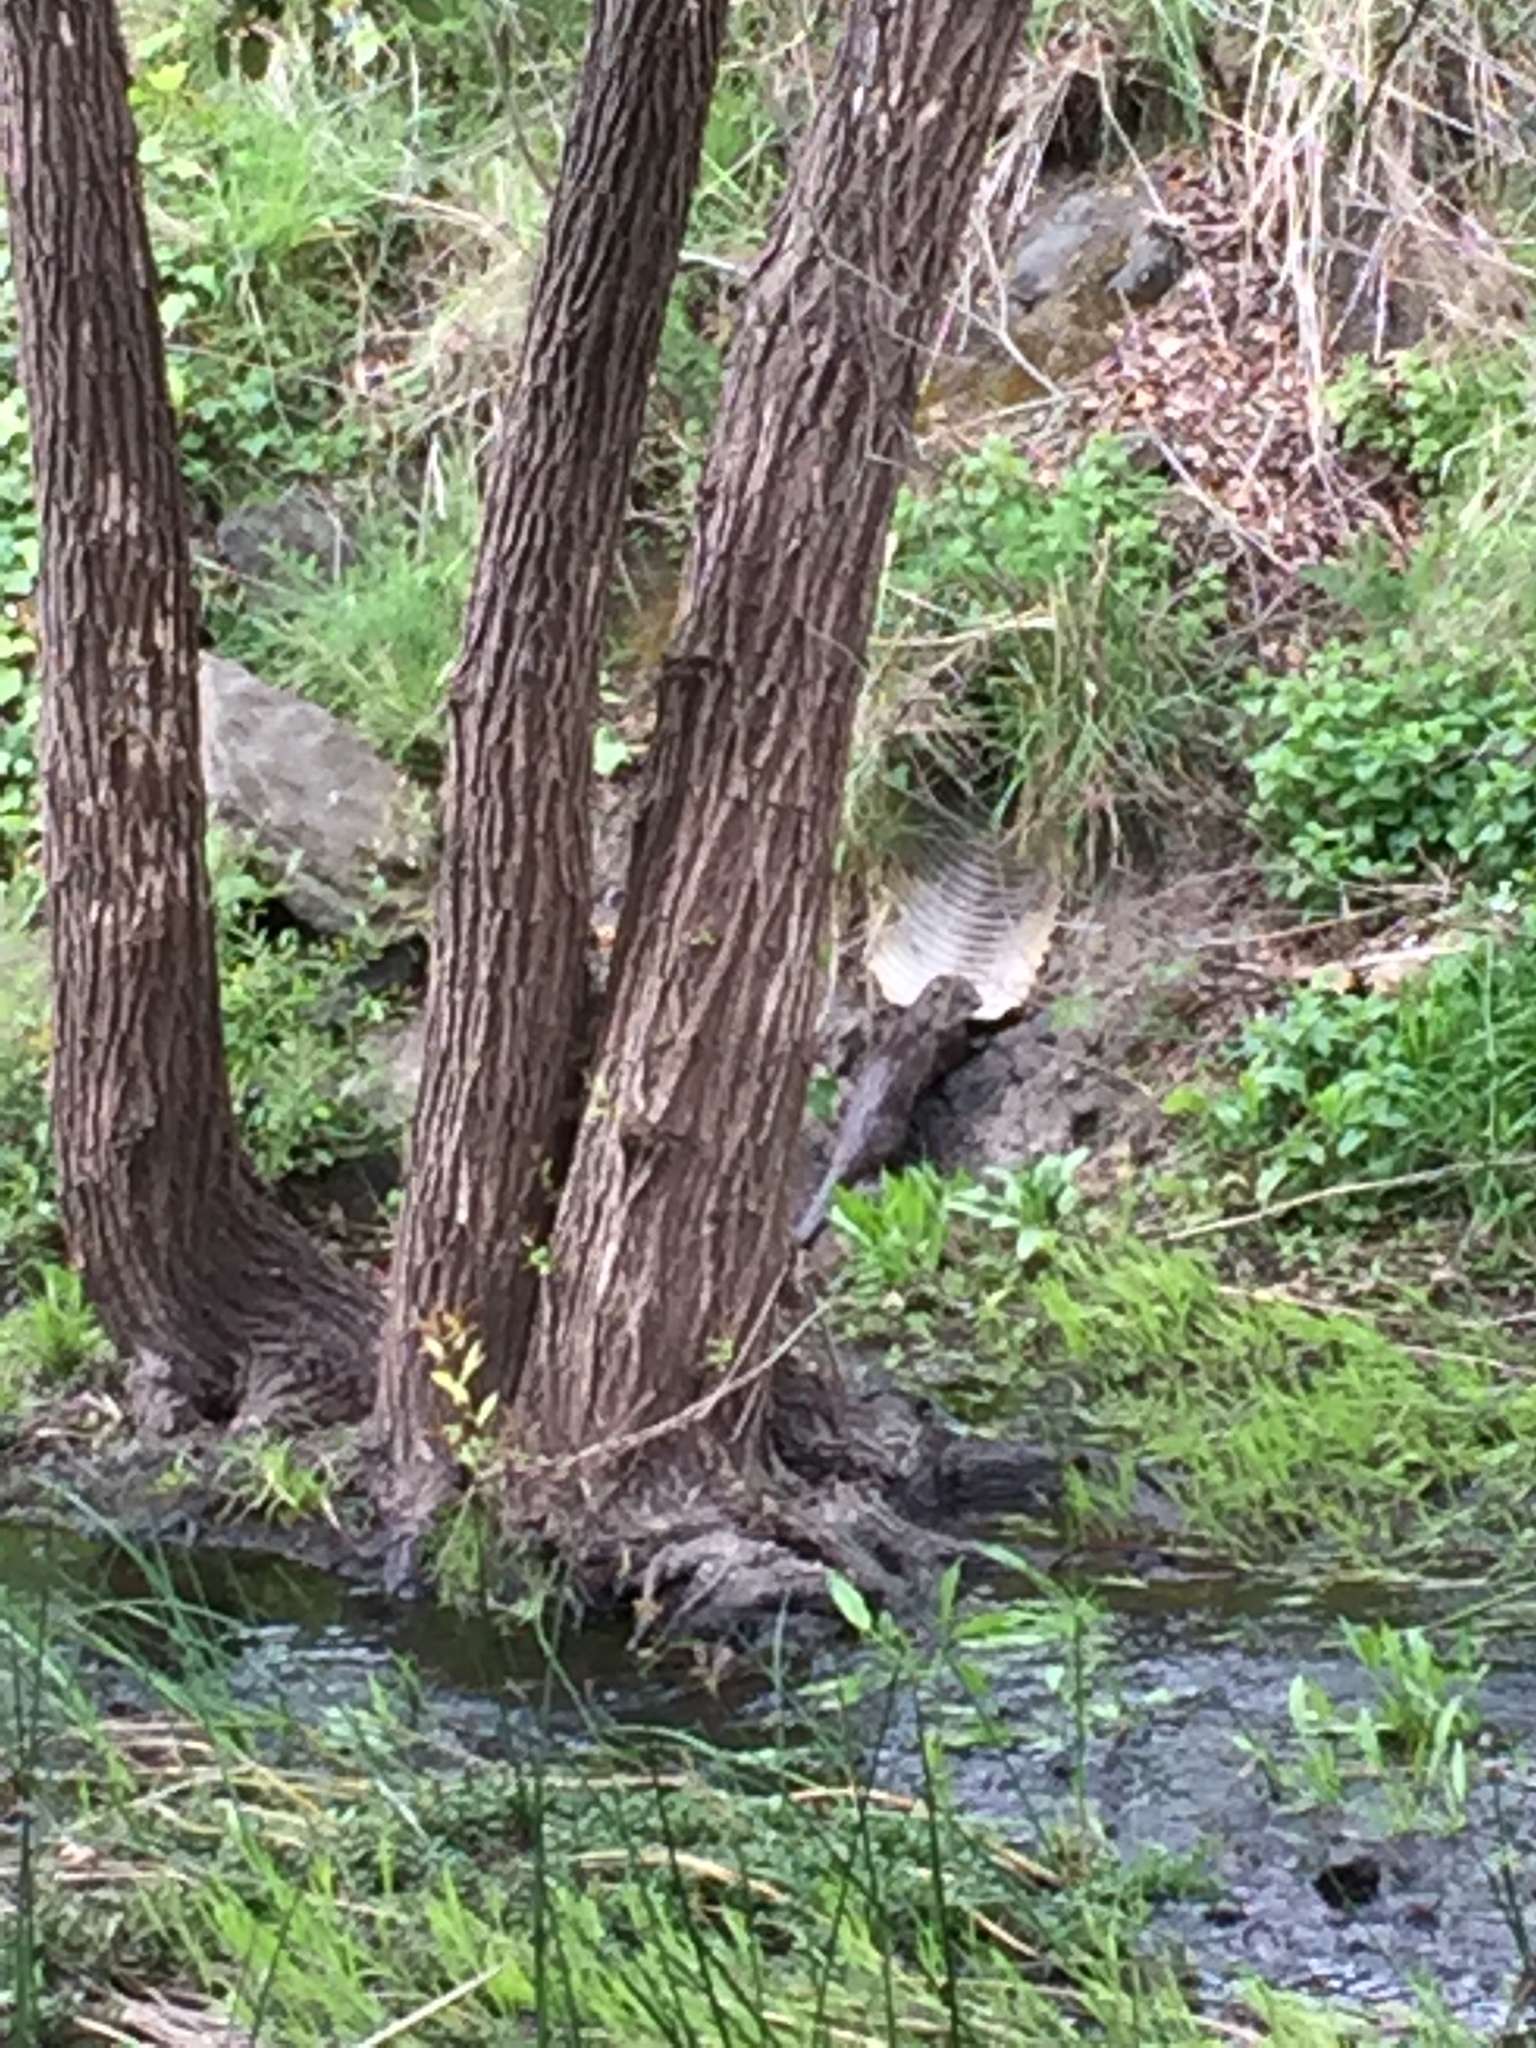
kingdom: Animalia
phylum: Chordata
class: Mammalia
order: Carnivora
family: Mustelidae
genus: Lontra
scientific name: Lontra canadensis
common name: North american river otter
